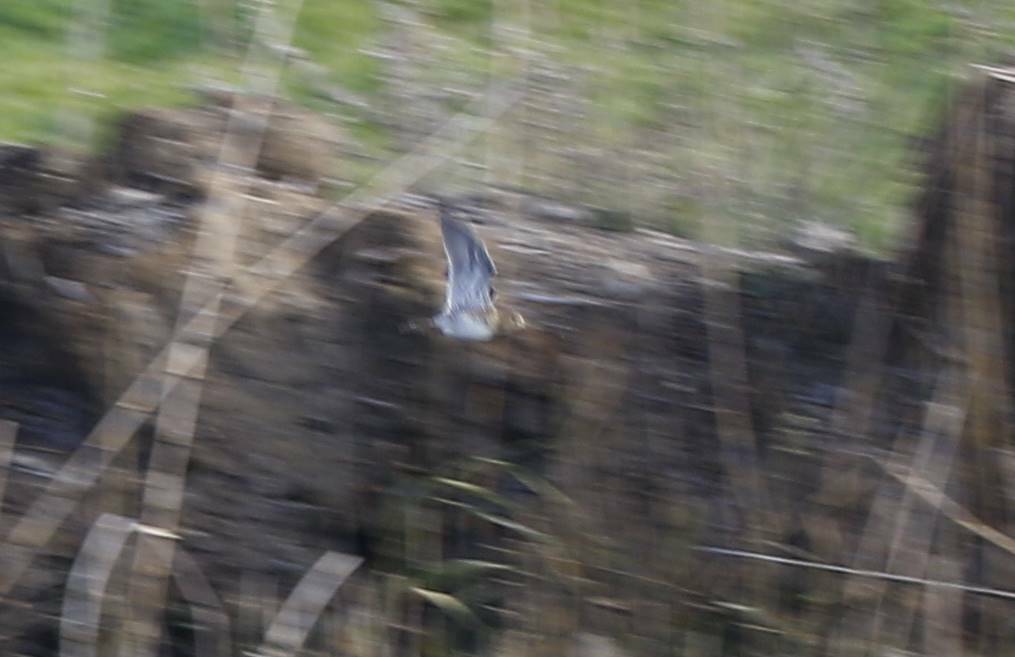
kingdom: Animalia
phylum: Chordata
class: Aves
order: Charadriiformes
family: Scolopacidae
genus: Lymnocryptes
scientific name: Lymnocryptes minimus
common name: Jack snipe
